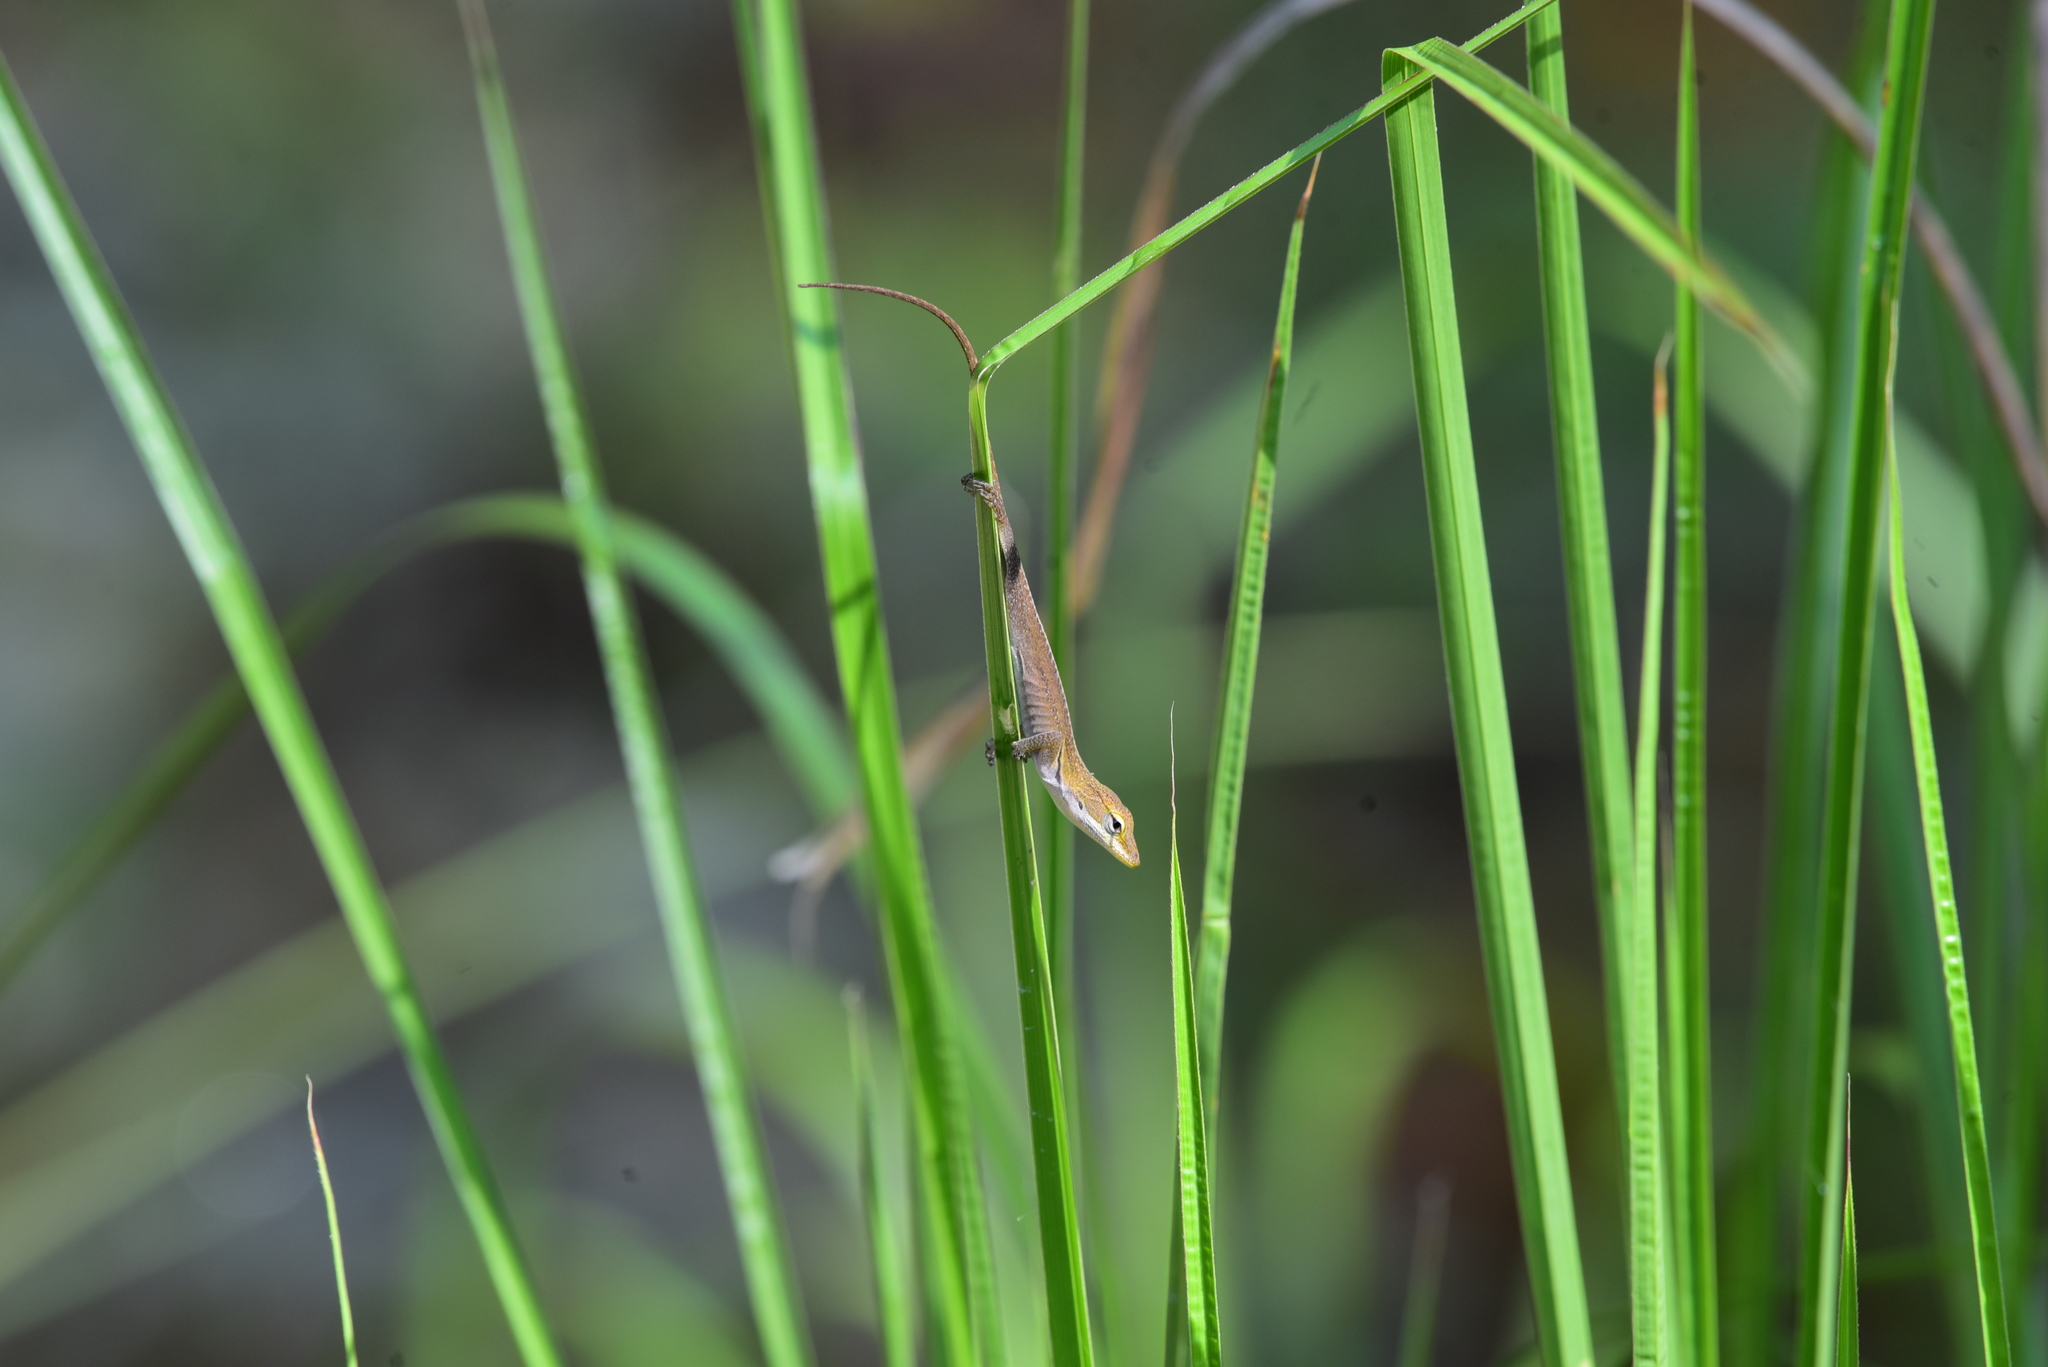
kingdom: Animalia
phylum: Chordata
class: Squamata
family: Dactyloidae
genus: Anolis
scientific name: Anolis carolinensis
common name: Green anole
